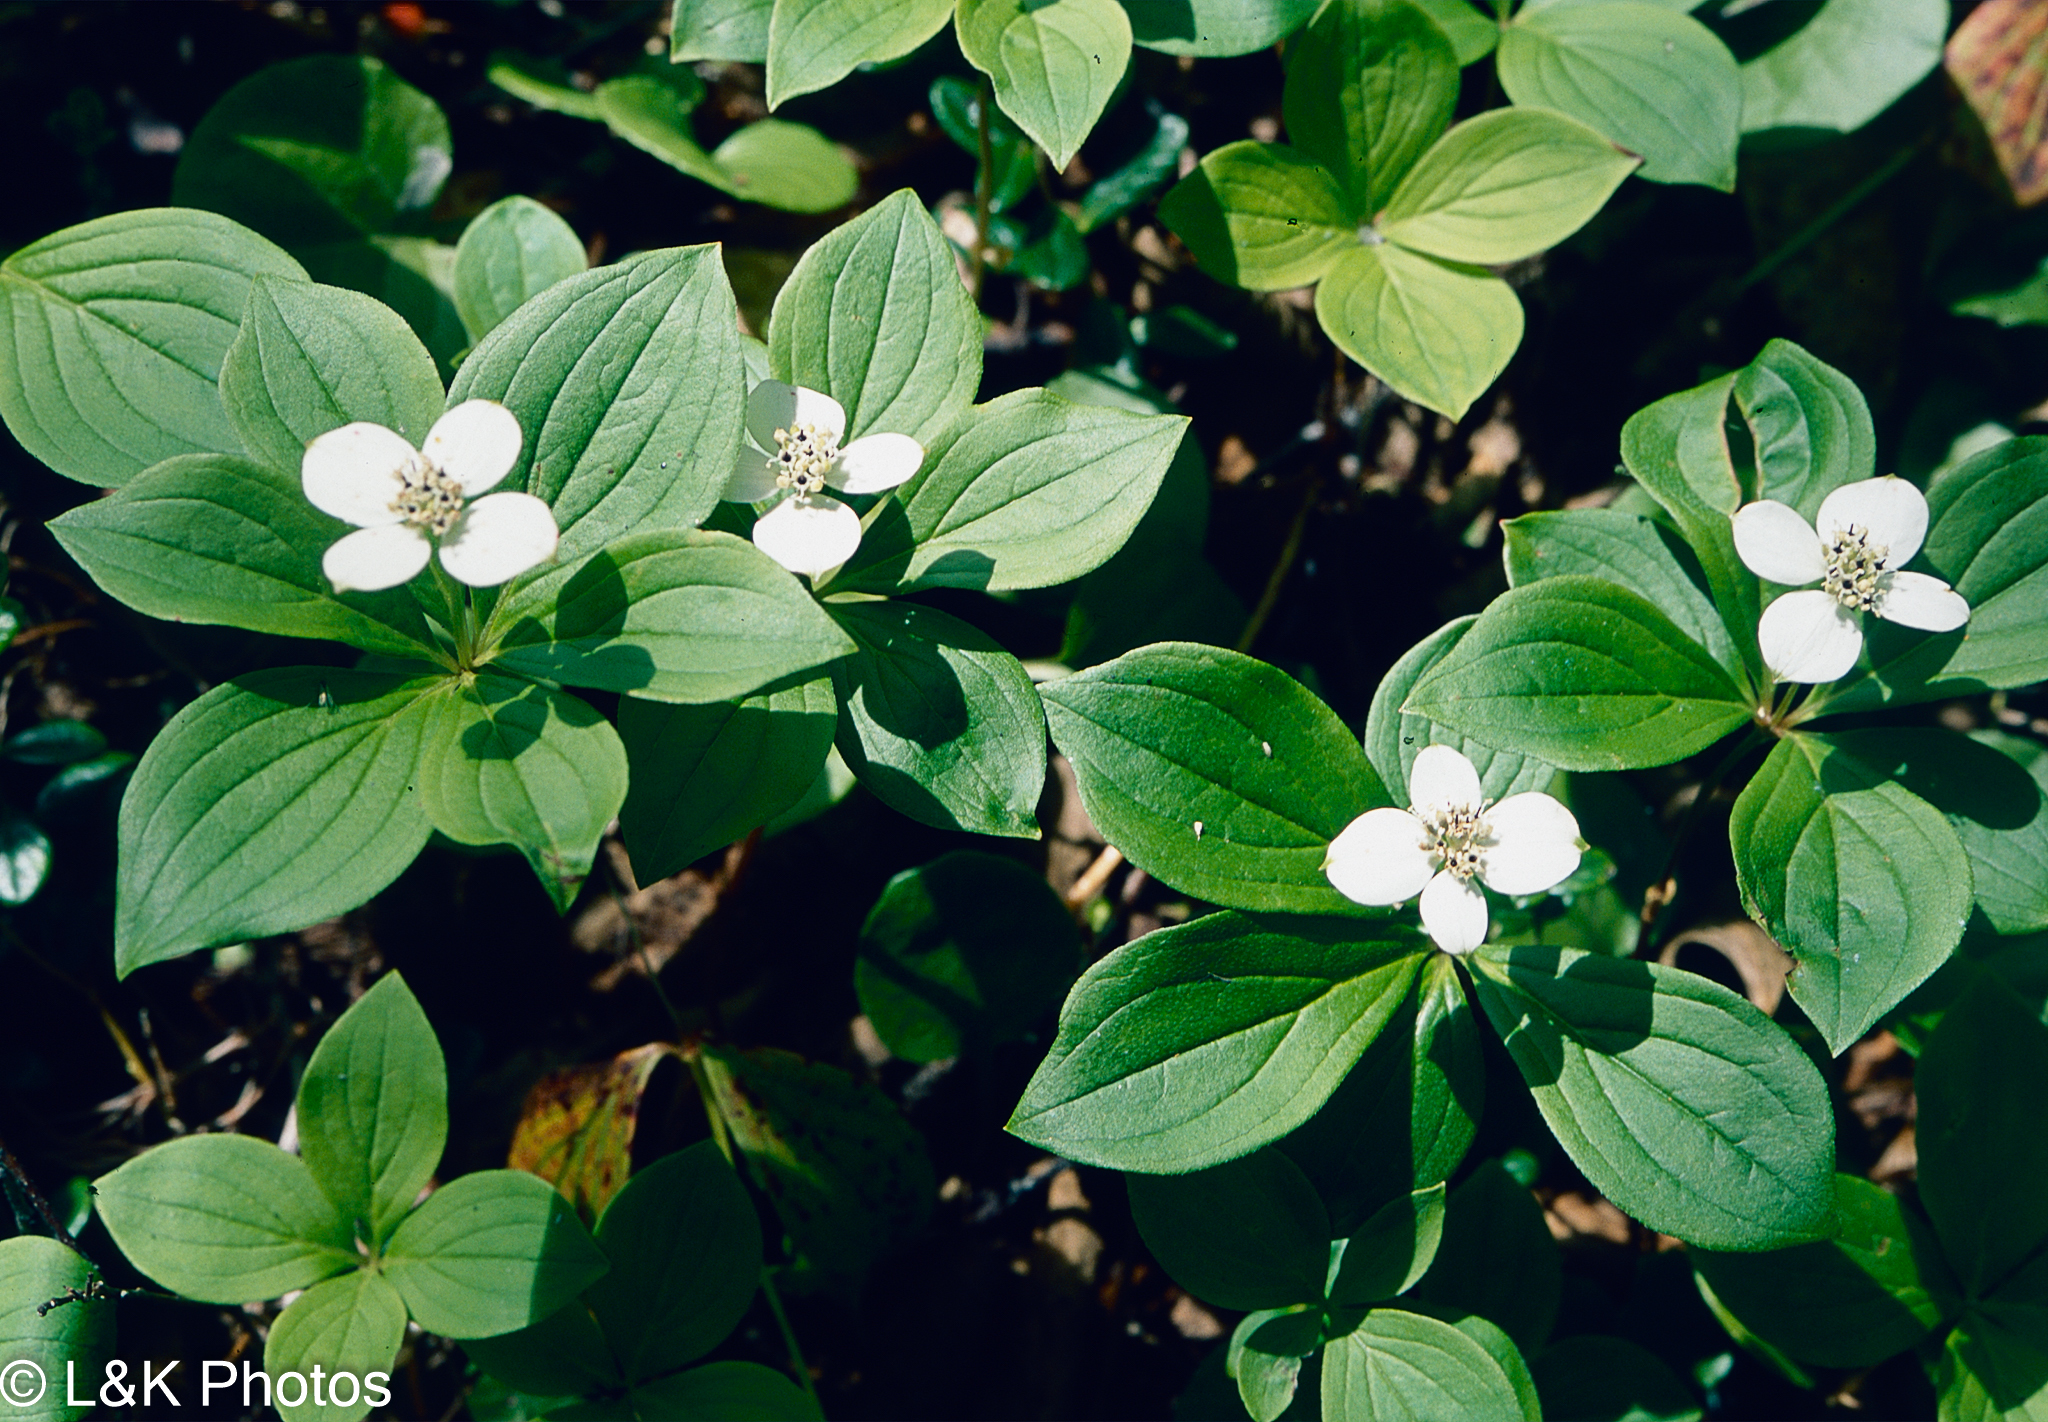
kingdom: Plantae
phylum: Tracheophyta
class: Magnoliopsida
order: Cornales
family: Cornaceae
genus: Cornus
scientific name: Cornus canadensis
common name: Creeping dogwood
